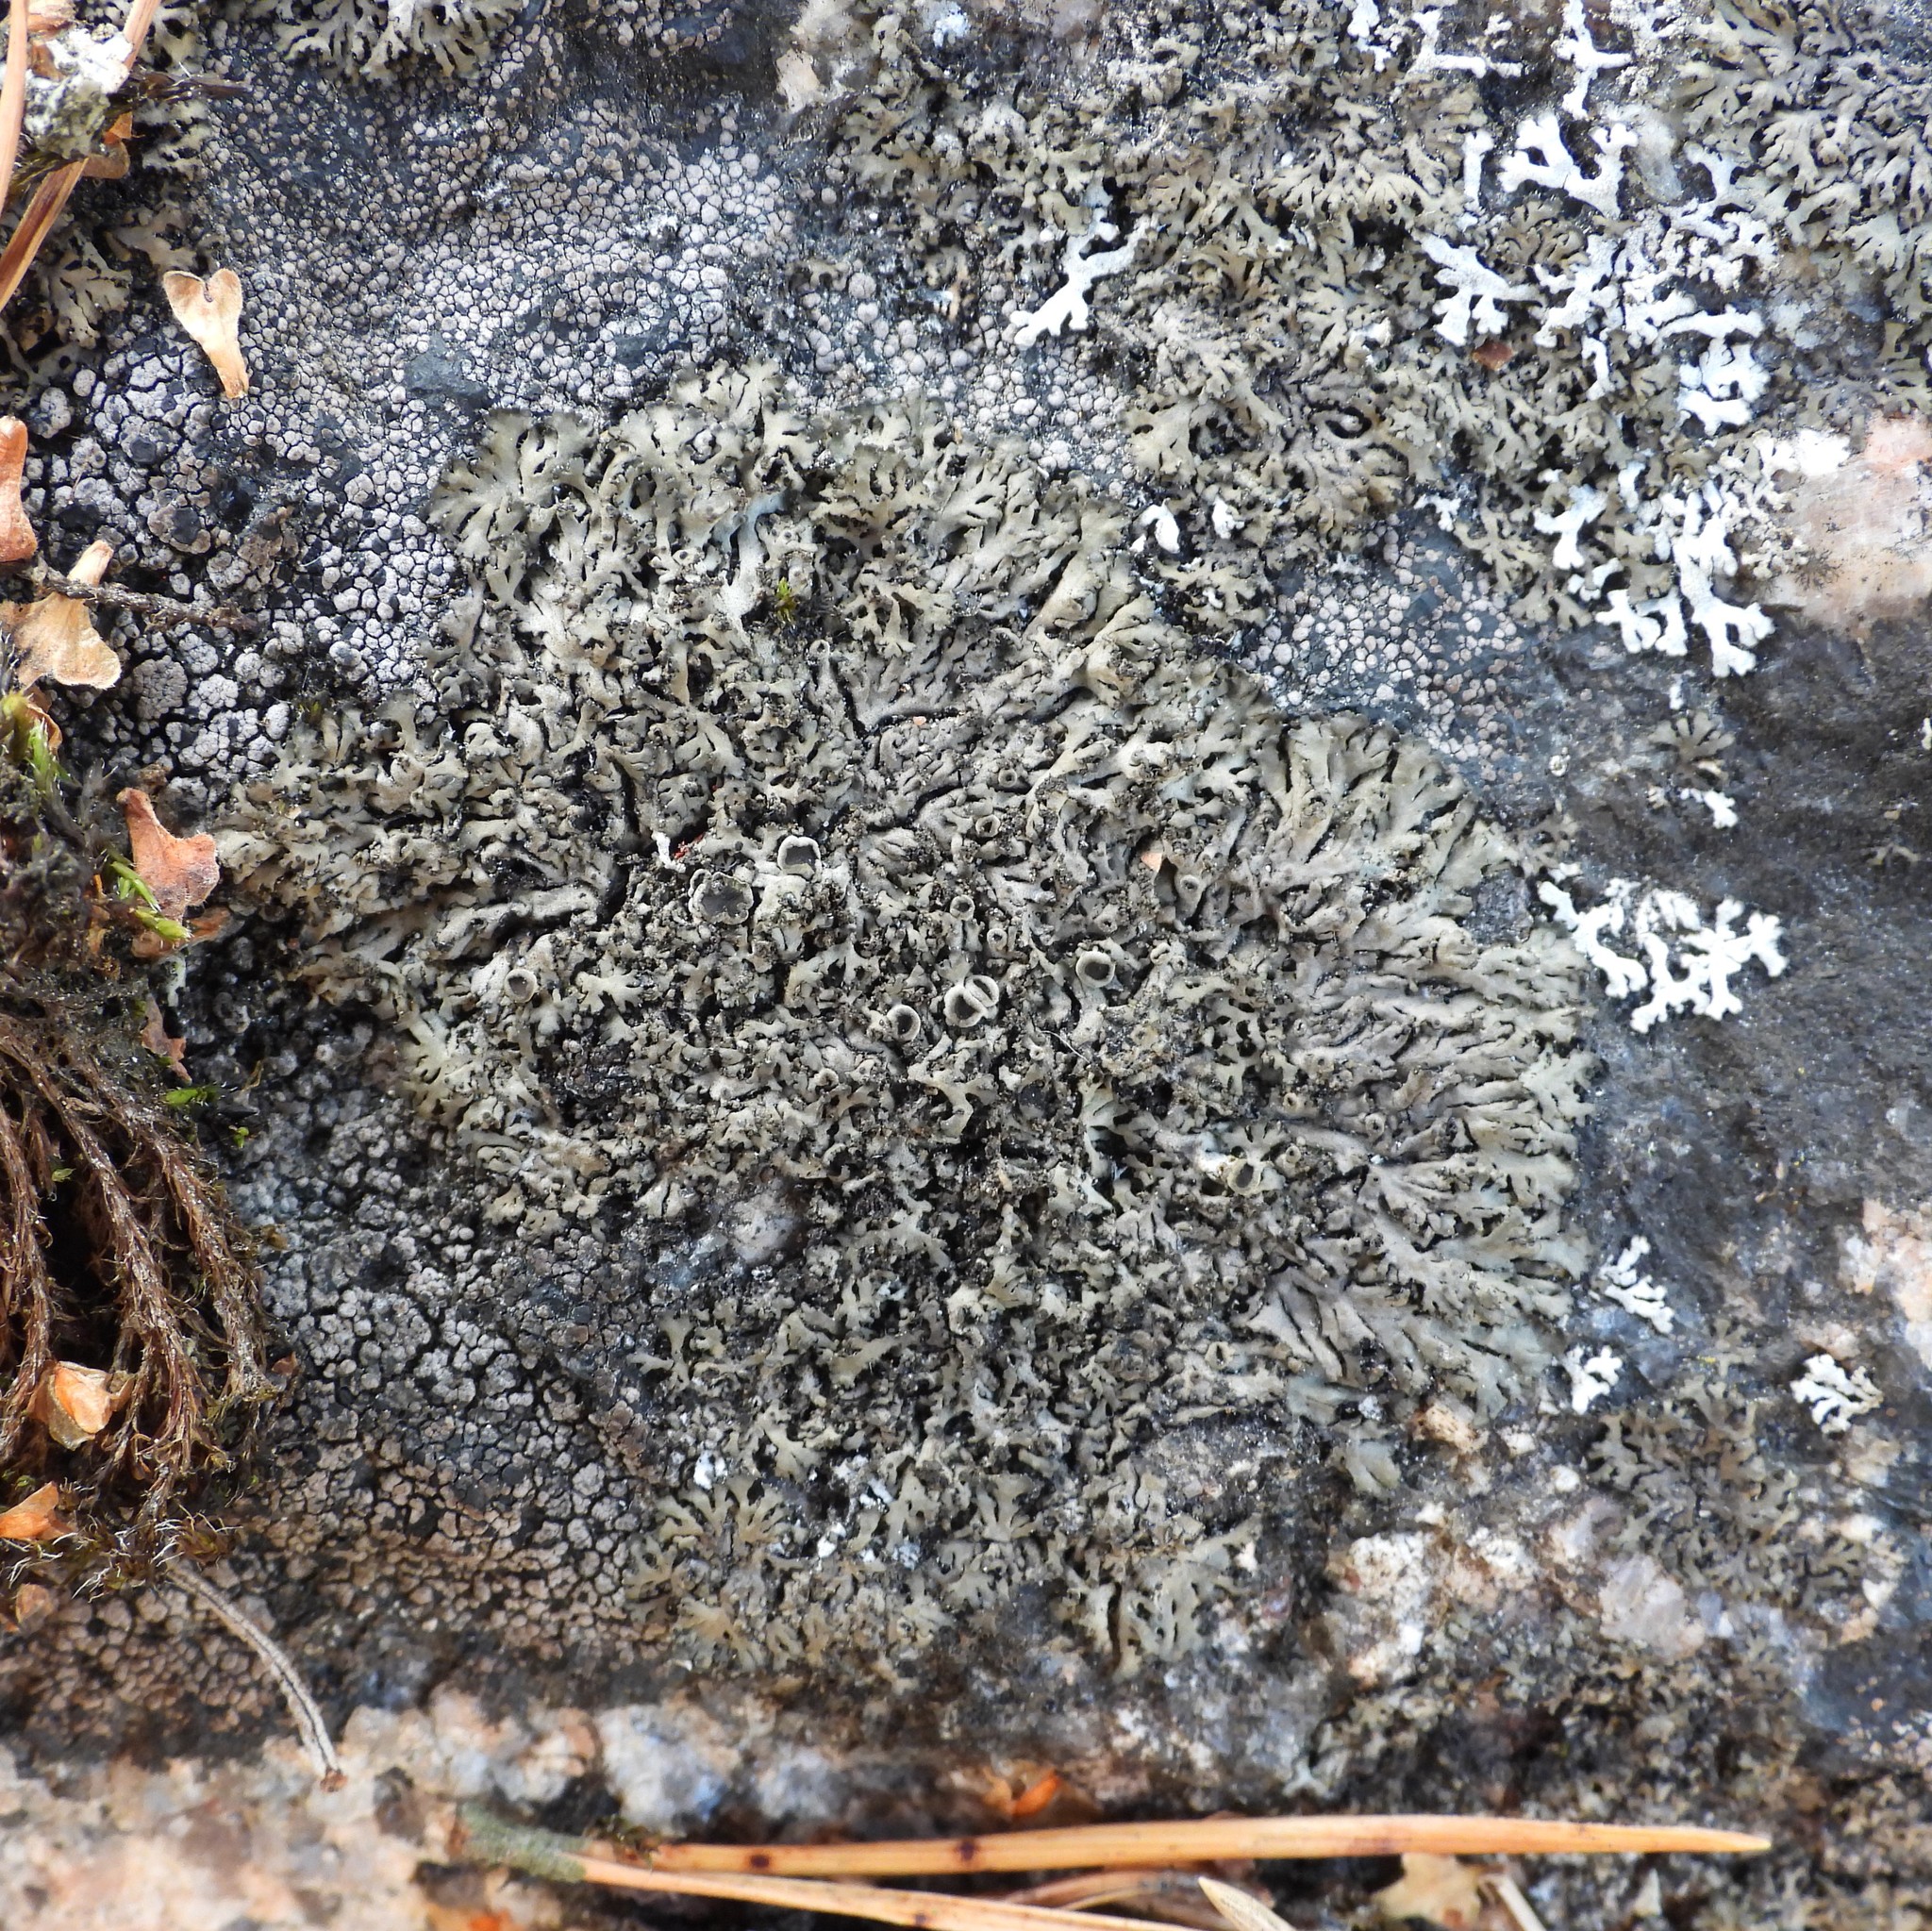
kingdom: Fungi
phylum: Ascomycota
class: Lecanoromycetes
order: Caliciales
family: Physciaceae
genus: Phaeophyscia
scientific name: Phaeophyscia sciastra
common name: Dark shadow lichen
